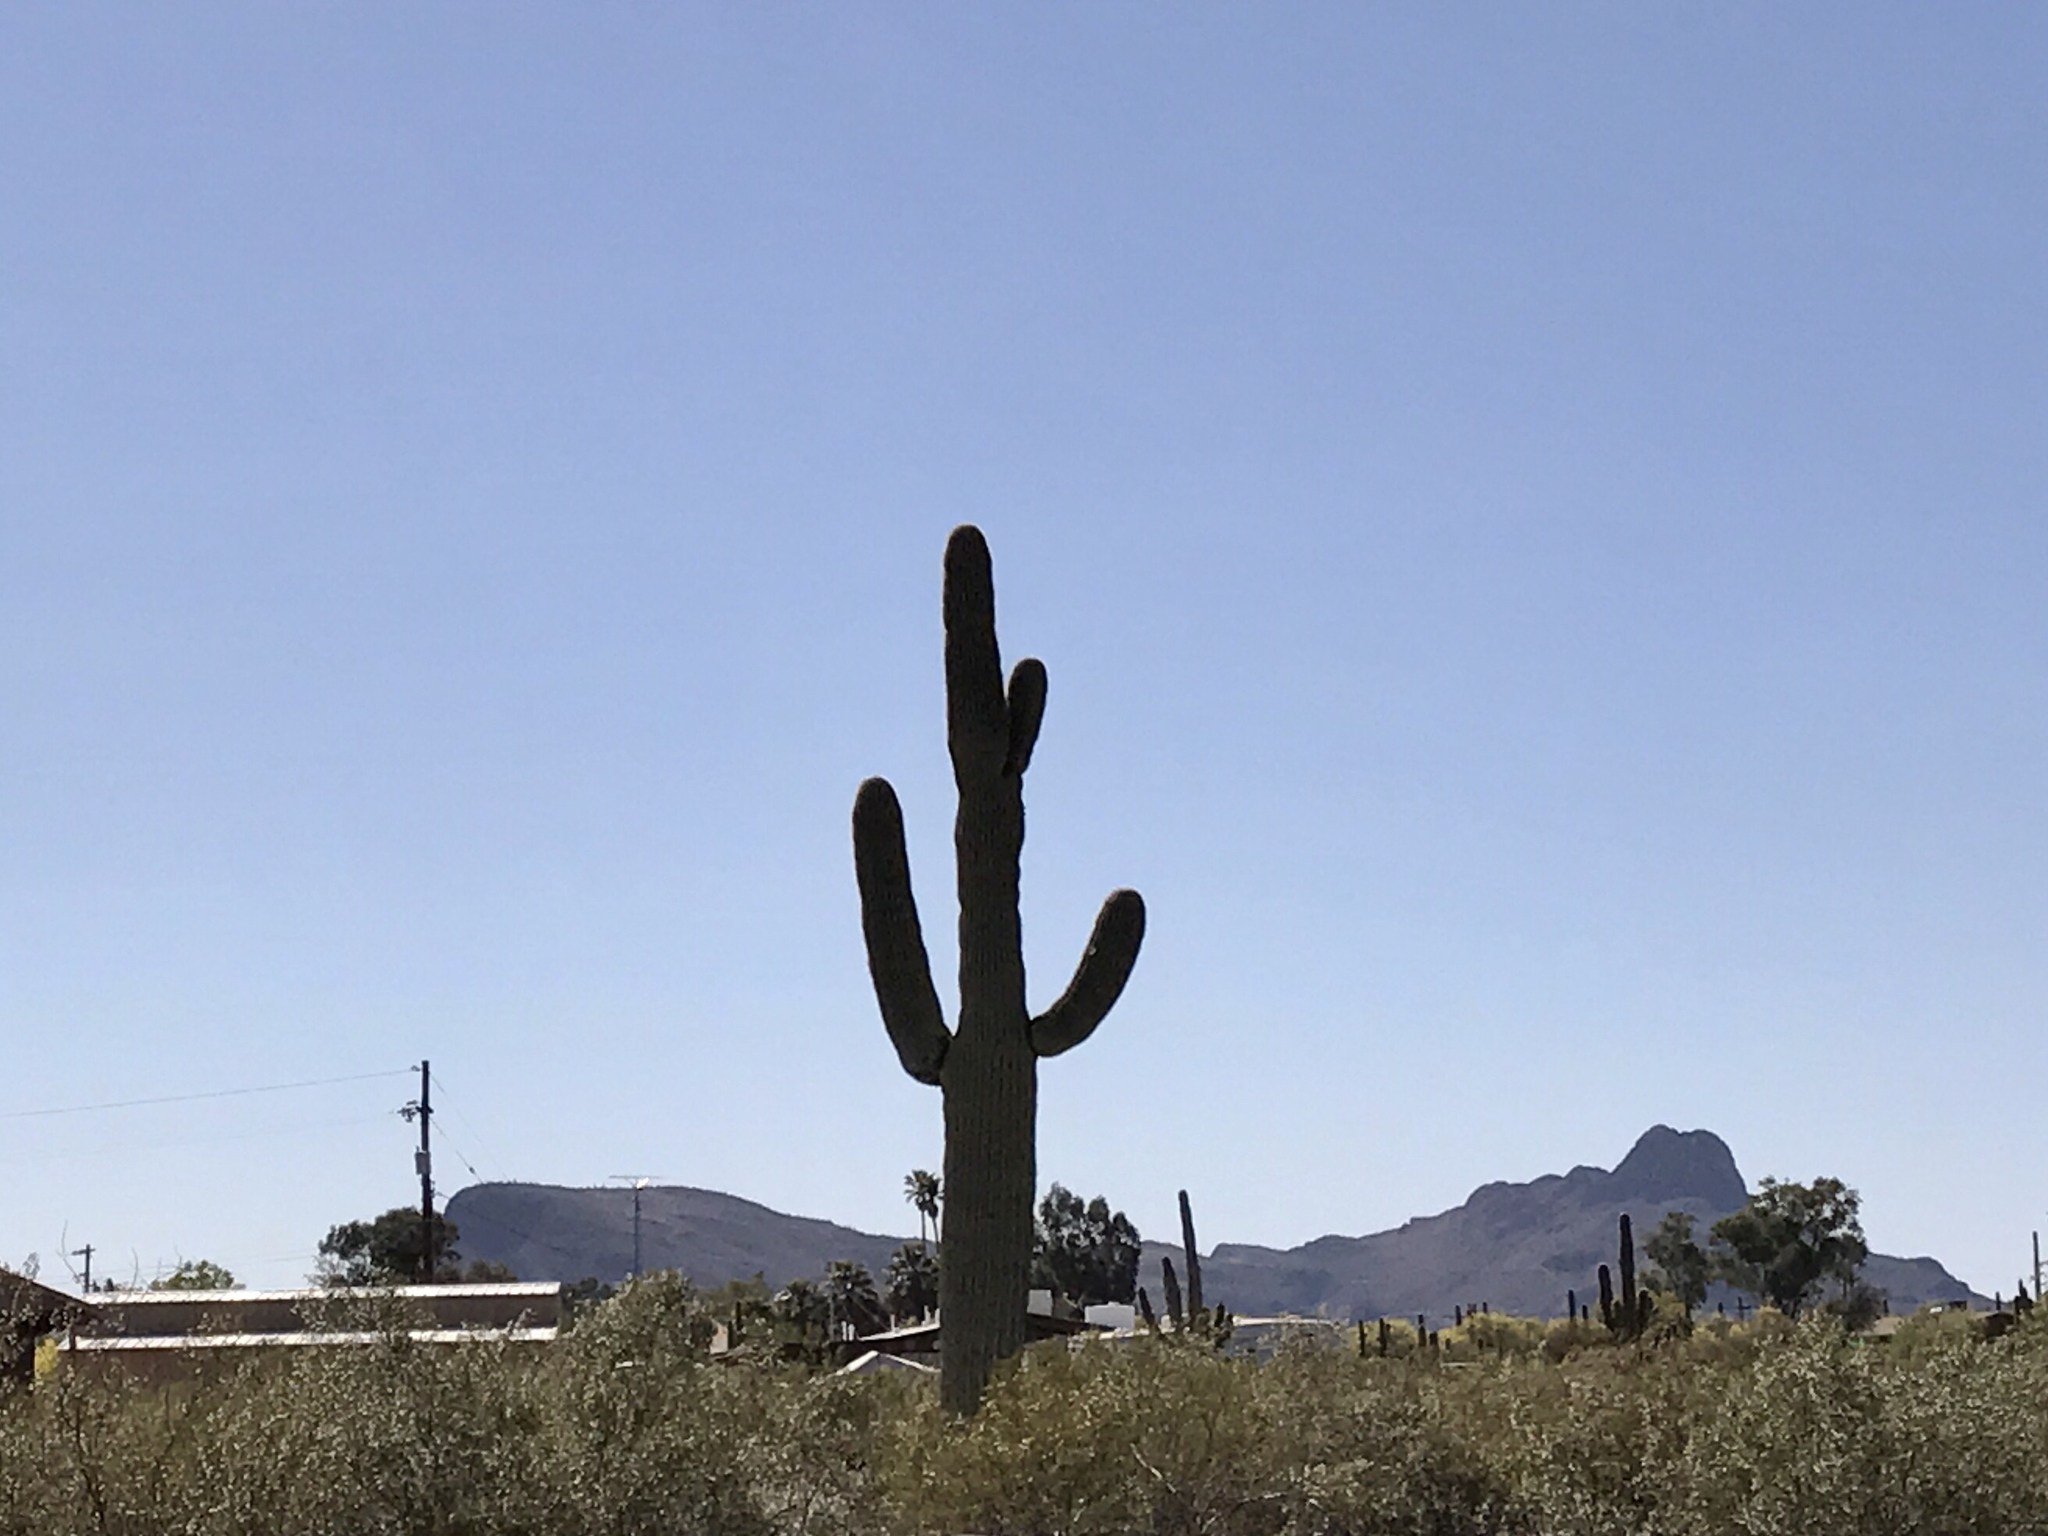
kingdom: Plantae
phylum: Tracheophyta
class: Magnoliopsida
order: Caryophyllales
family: Cactaceae
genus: Carnegiea
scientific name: Carnegiea gigantea
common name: Saguaro
